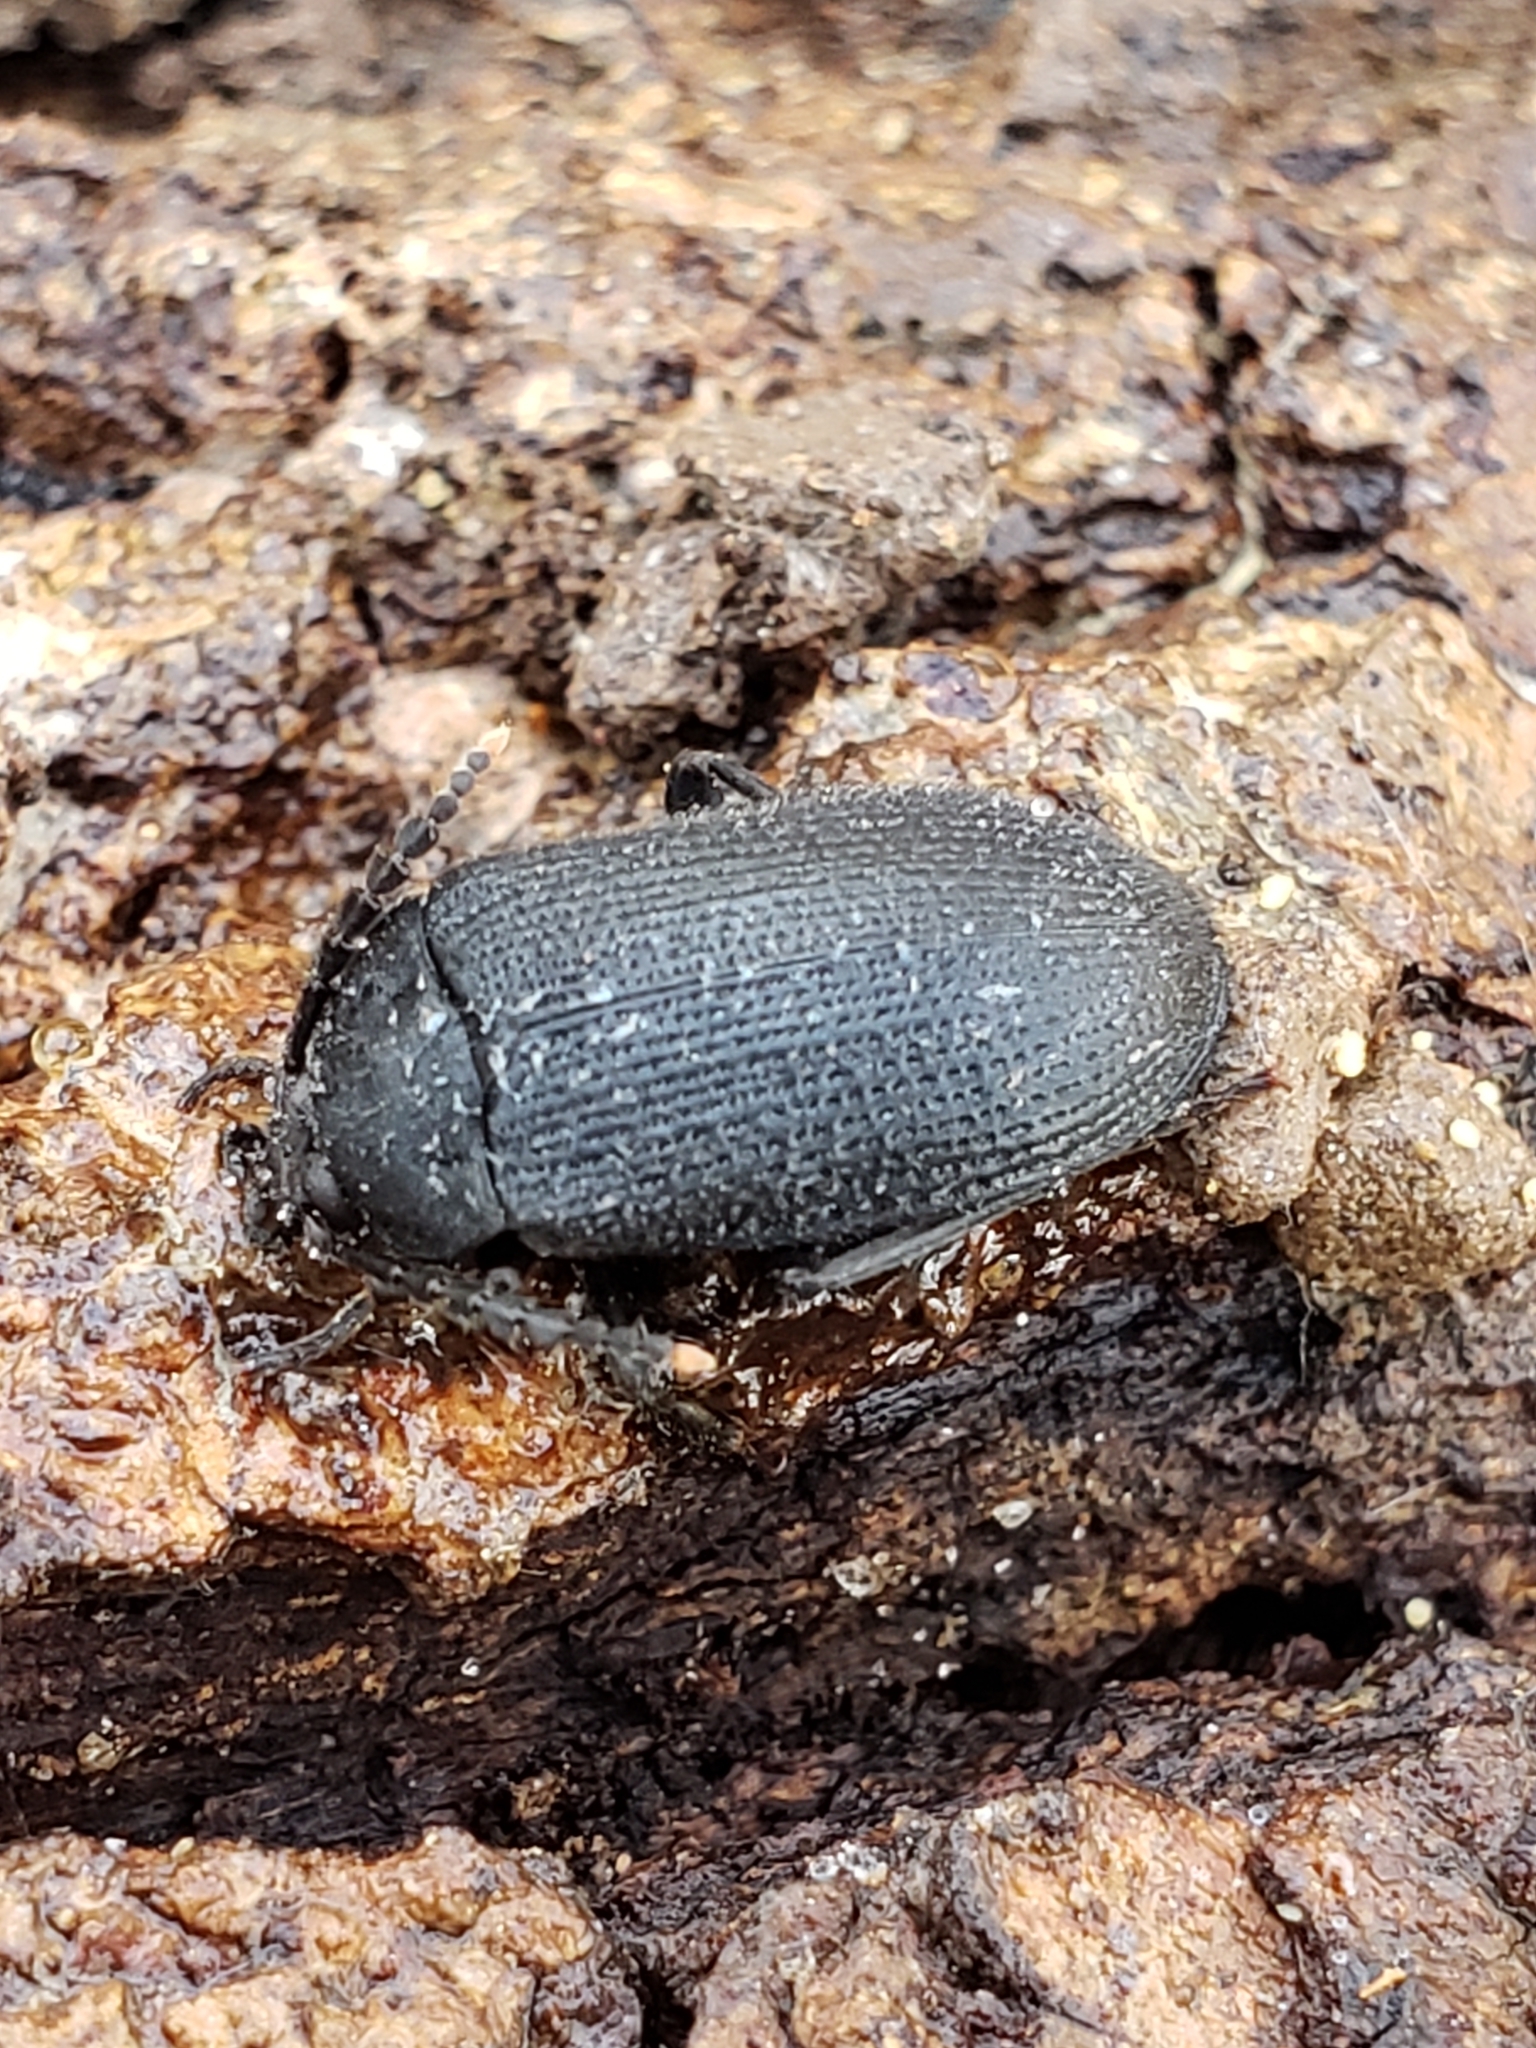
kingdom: Animalia
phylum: Arthropoda
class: Insecta
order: Coleoptera
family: Tetratomidae
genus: Penthe
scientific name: Penthe pimelia
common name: Velvety bark beetle
